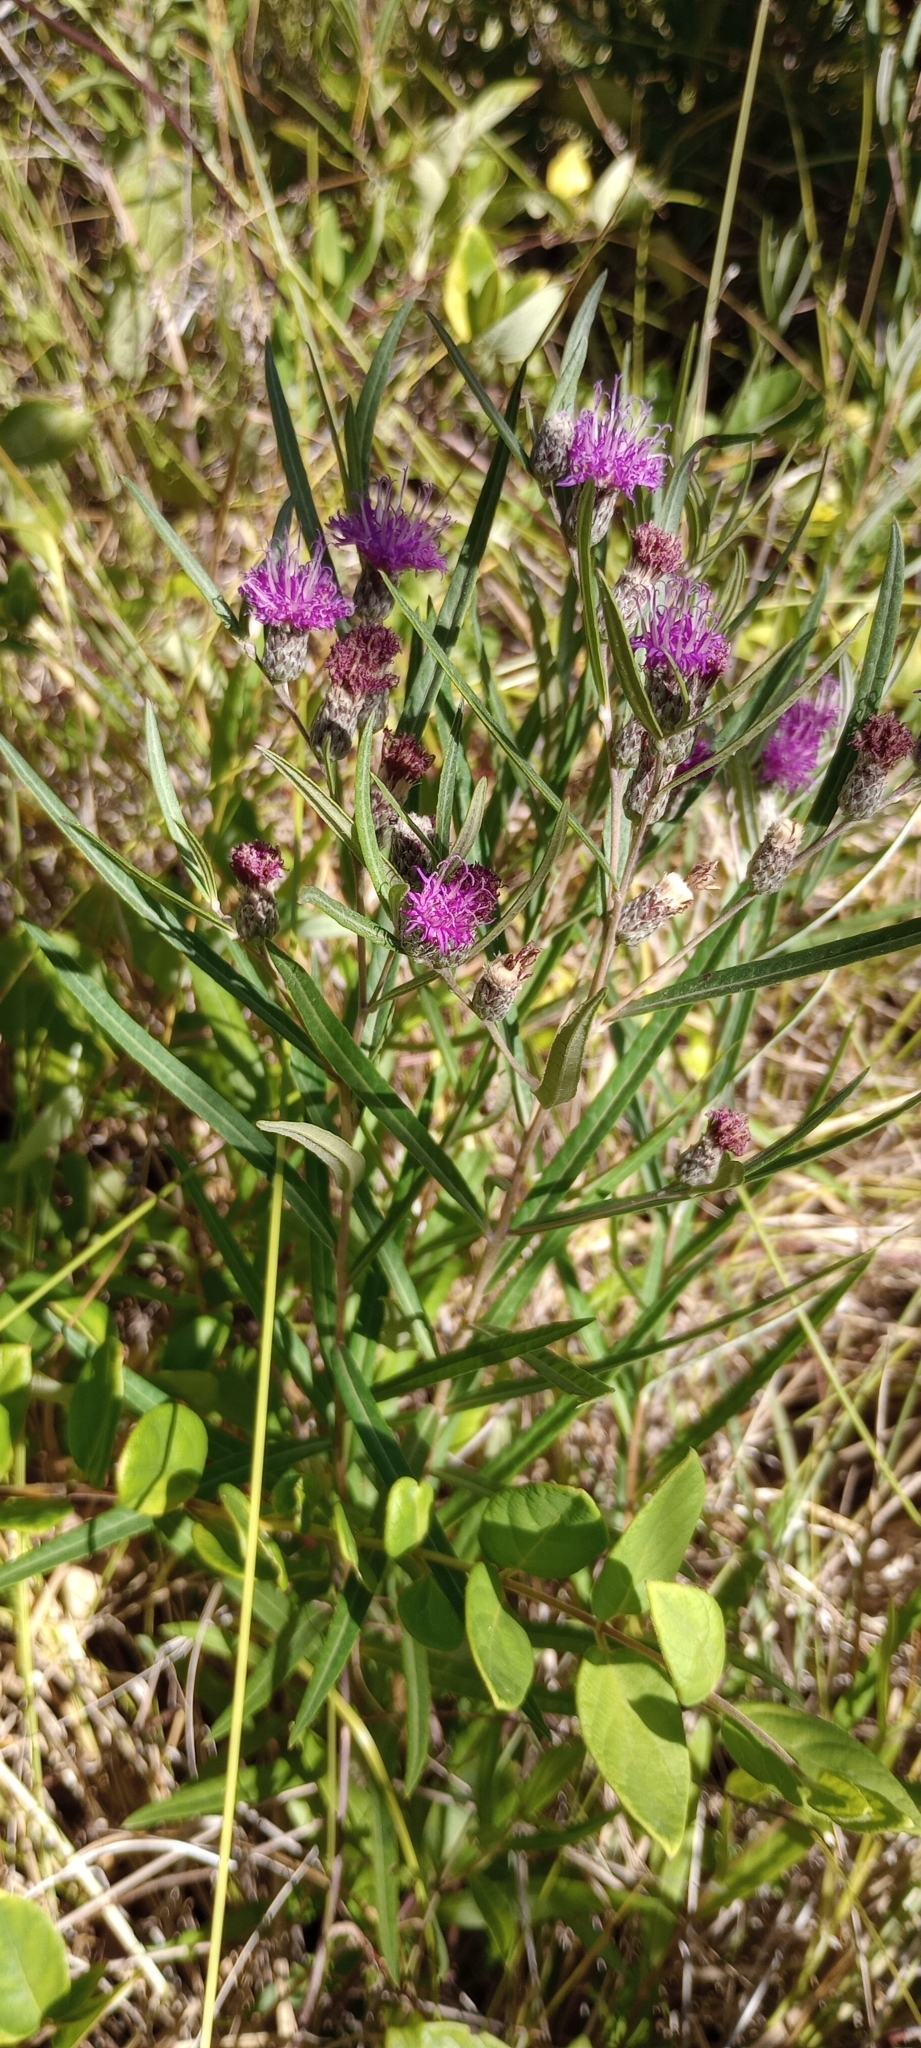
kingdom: Plantae
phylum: Tracheophyta
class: Magnoliopsida
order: Asterales
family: Asteraceae
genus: Lessingianthus
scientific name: Lessingianthus rubricaulis
